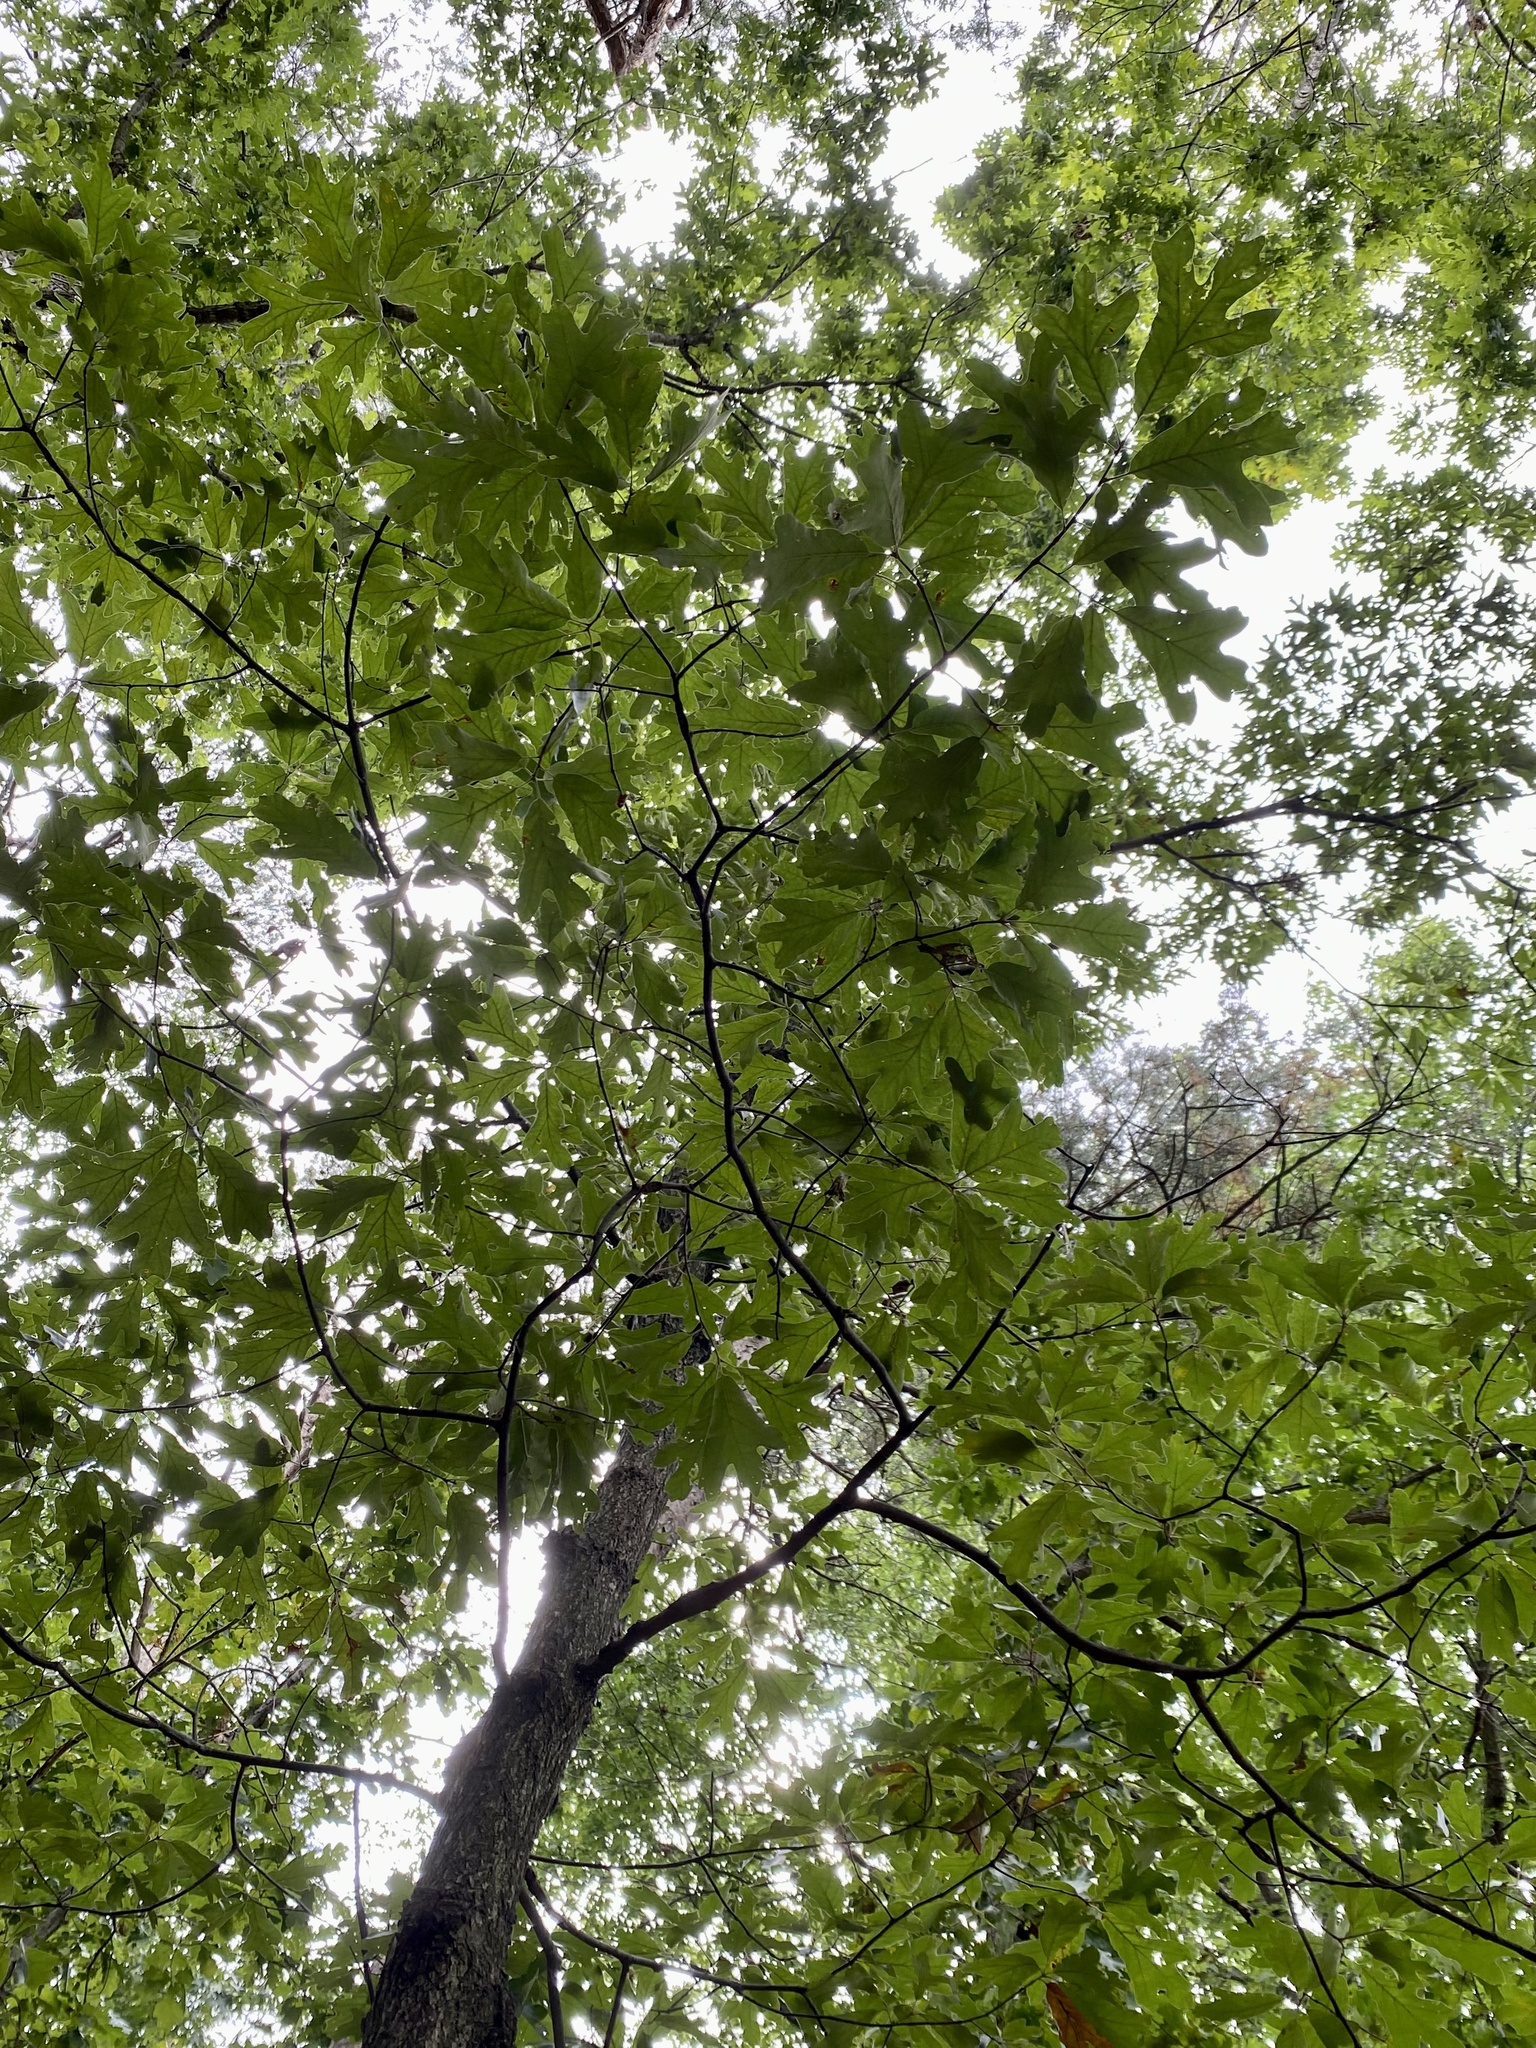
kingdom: Plantae
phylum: Tracheophyta
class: Magnoliopsida
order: Fagales
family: Fagaceae
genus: Quercus
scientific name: Quercus falcata
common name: Southern red oak
